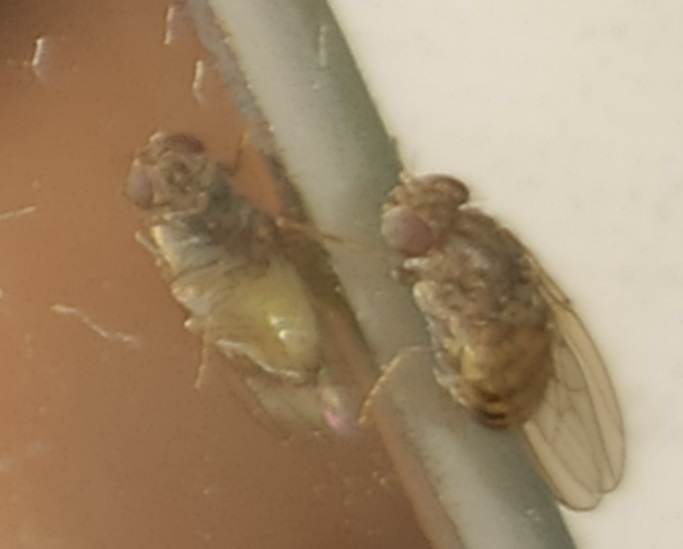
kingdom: Animalia
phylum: Arthropoda
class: Insecta
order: Diptera
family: Drosophilidae
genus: Drosophila
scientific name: Drosophila repleta
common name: Pomace fly
